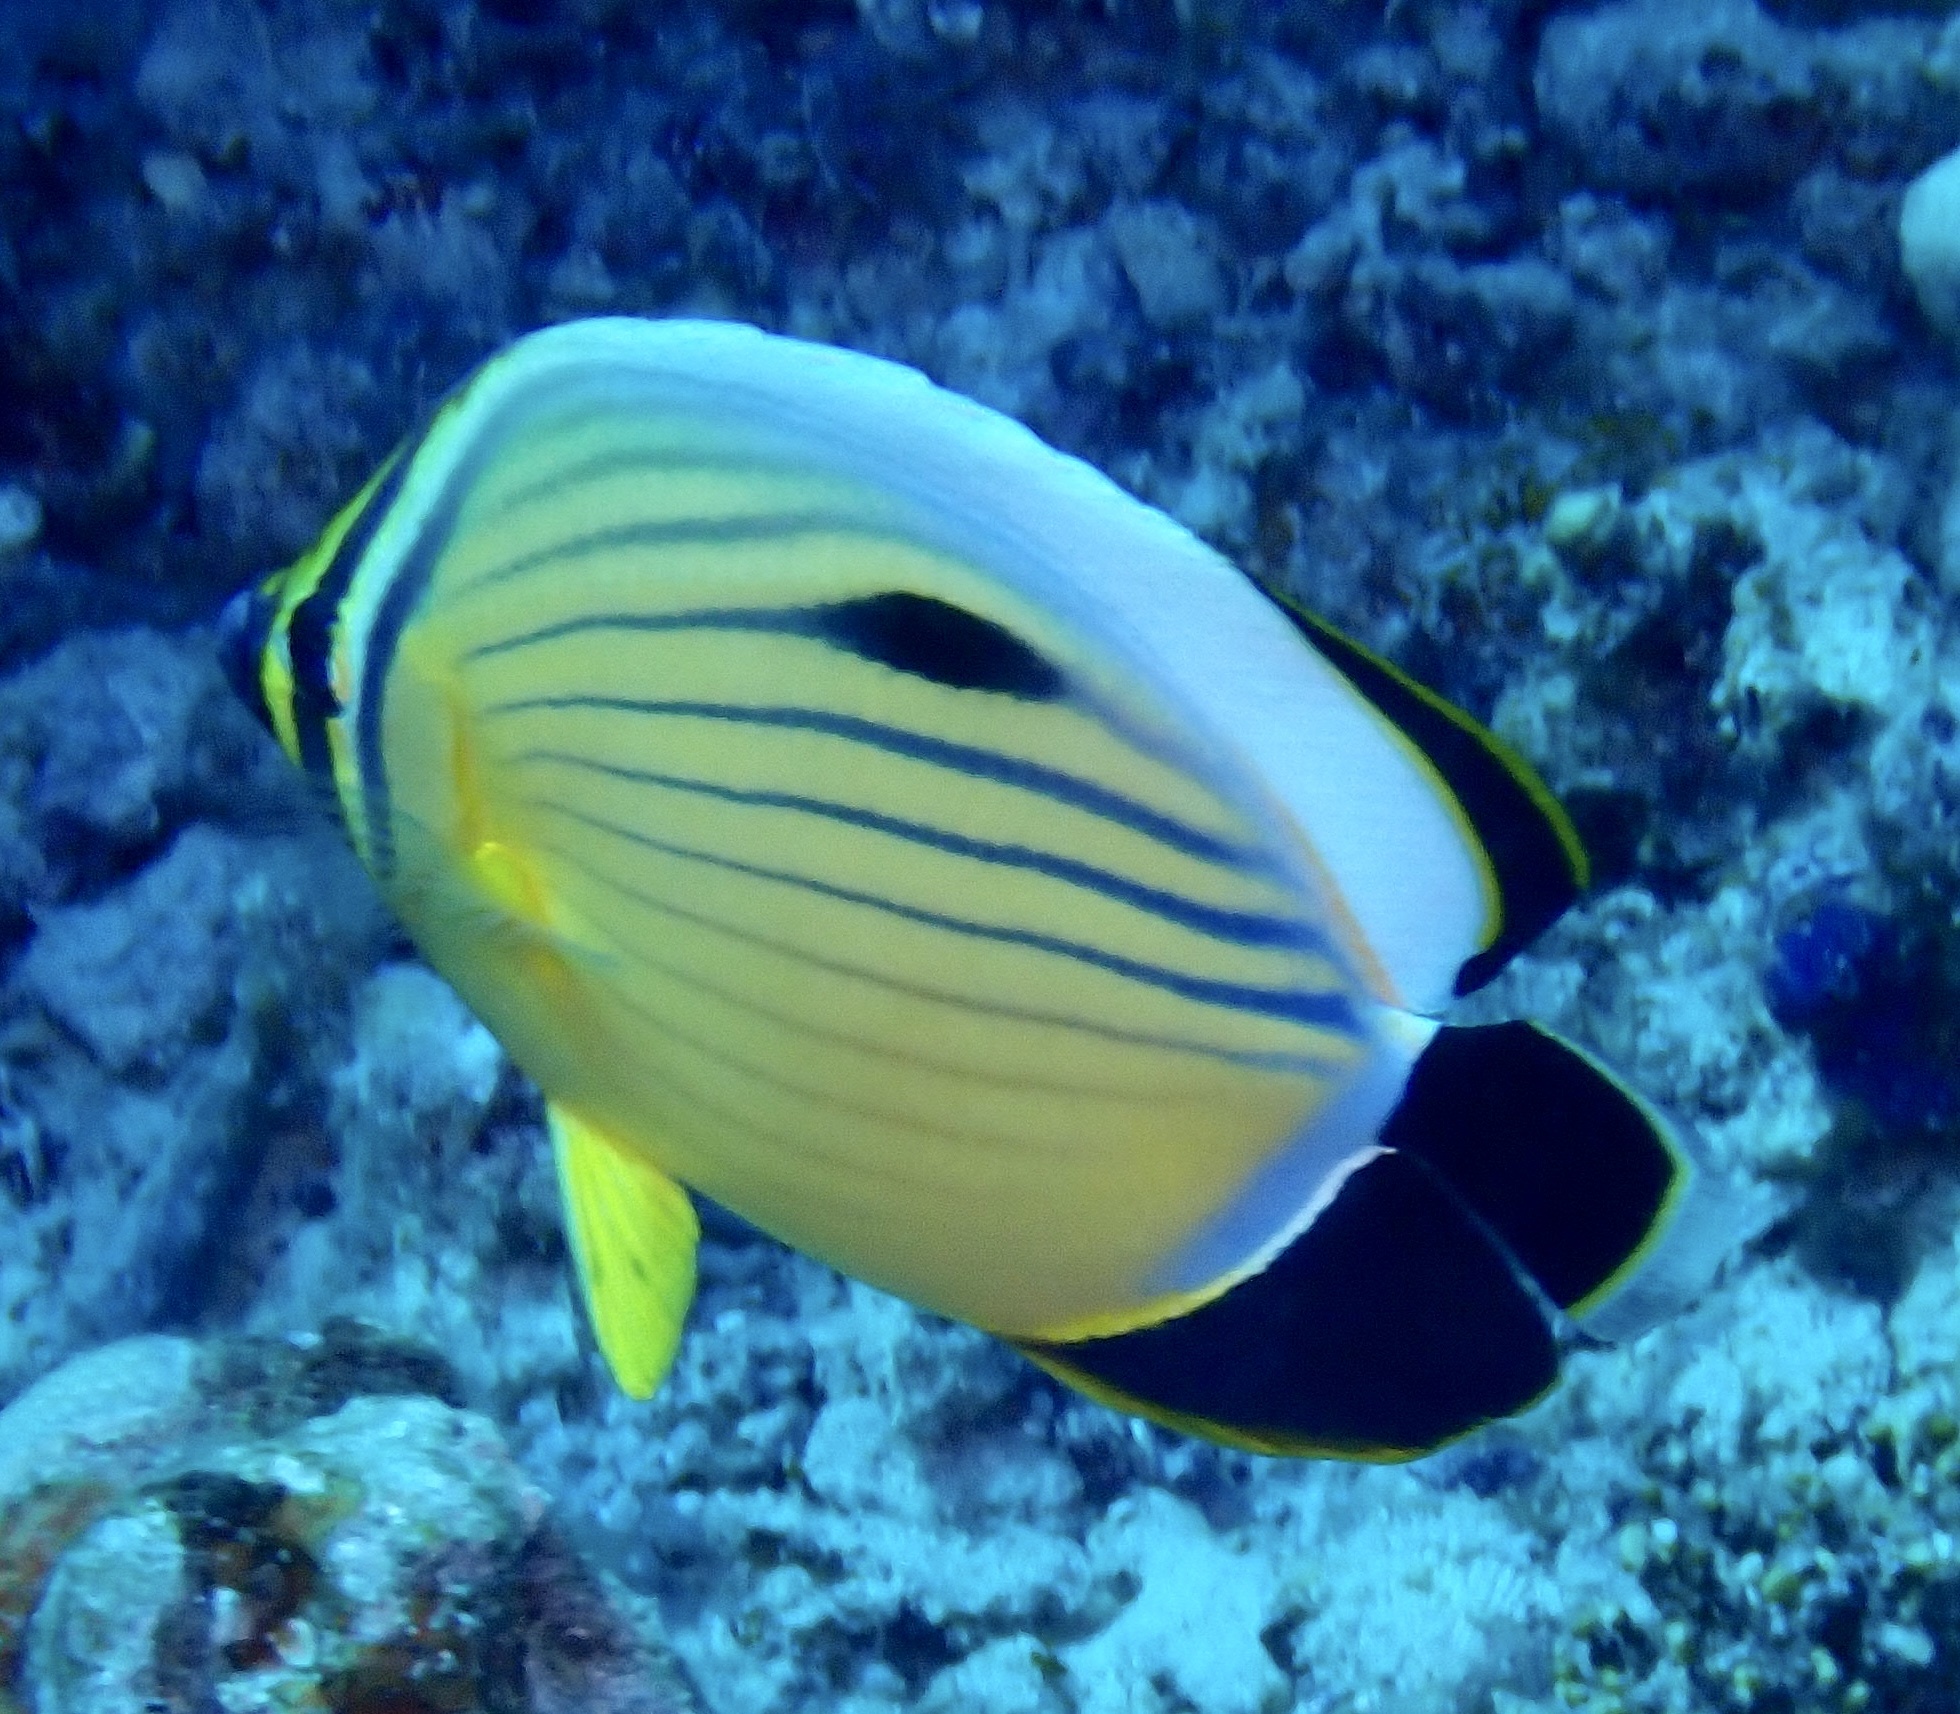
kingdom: Animalia
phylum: Chordata
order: Perciformes
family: Chaetodontidae
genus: Chaetodon
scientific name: Chaetodon austriacus
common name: Exquisite butterflyfish
